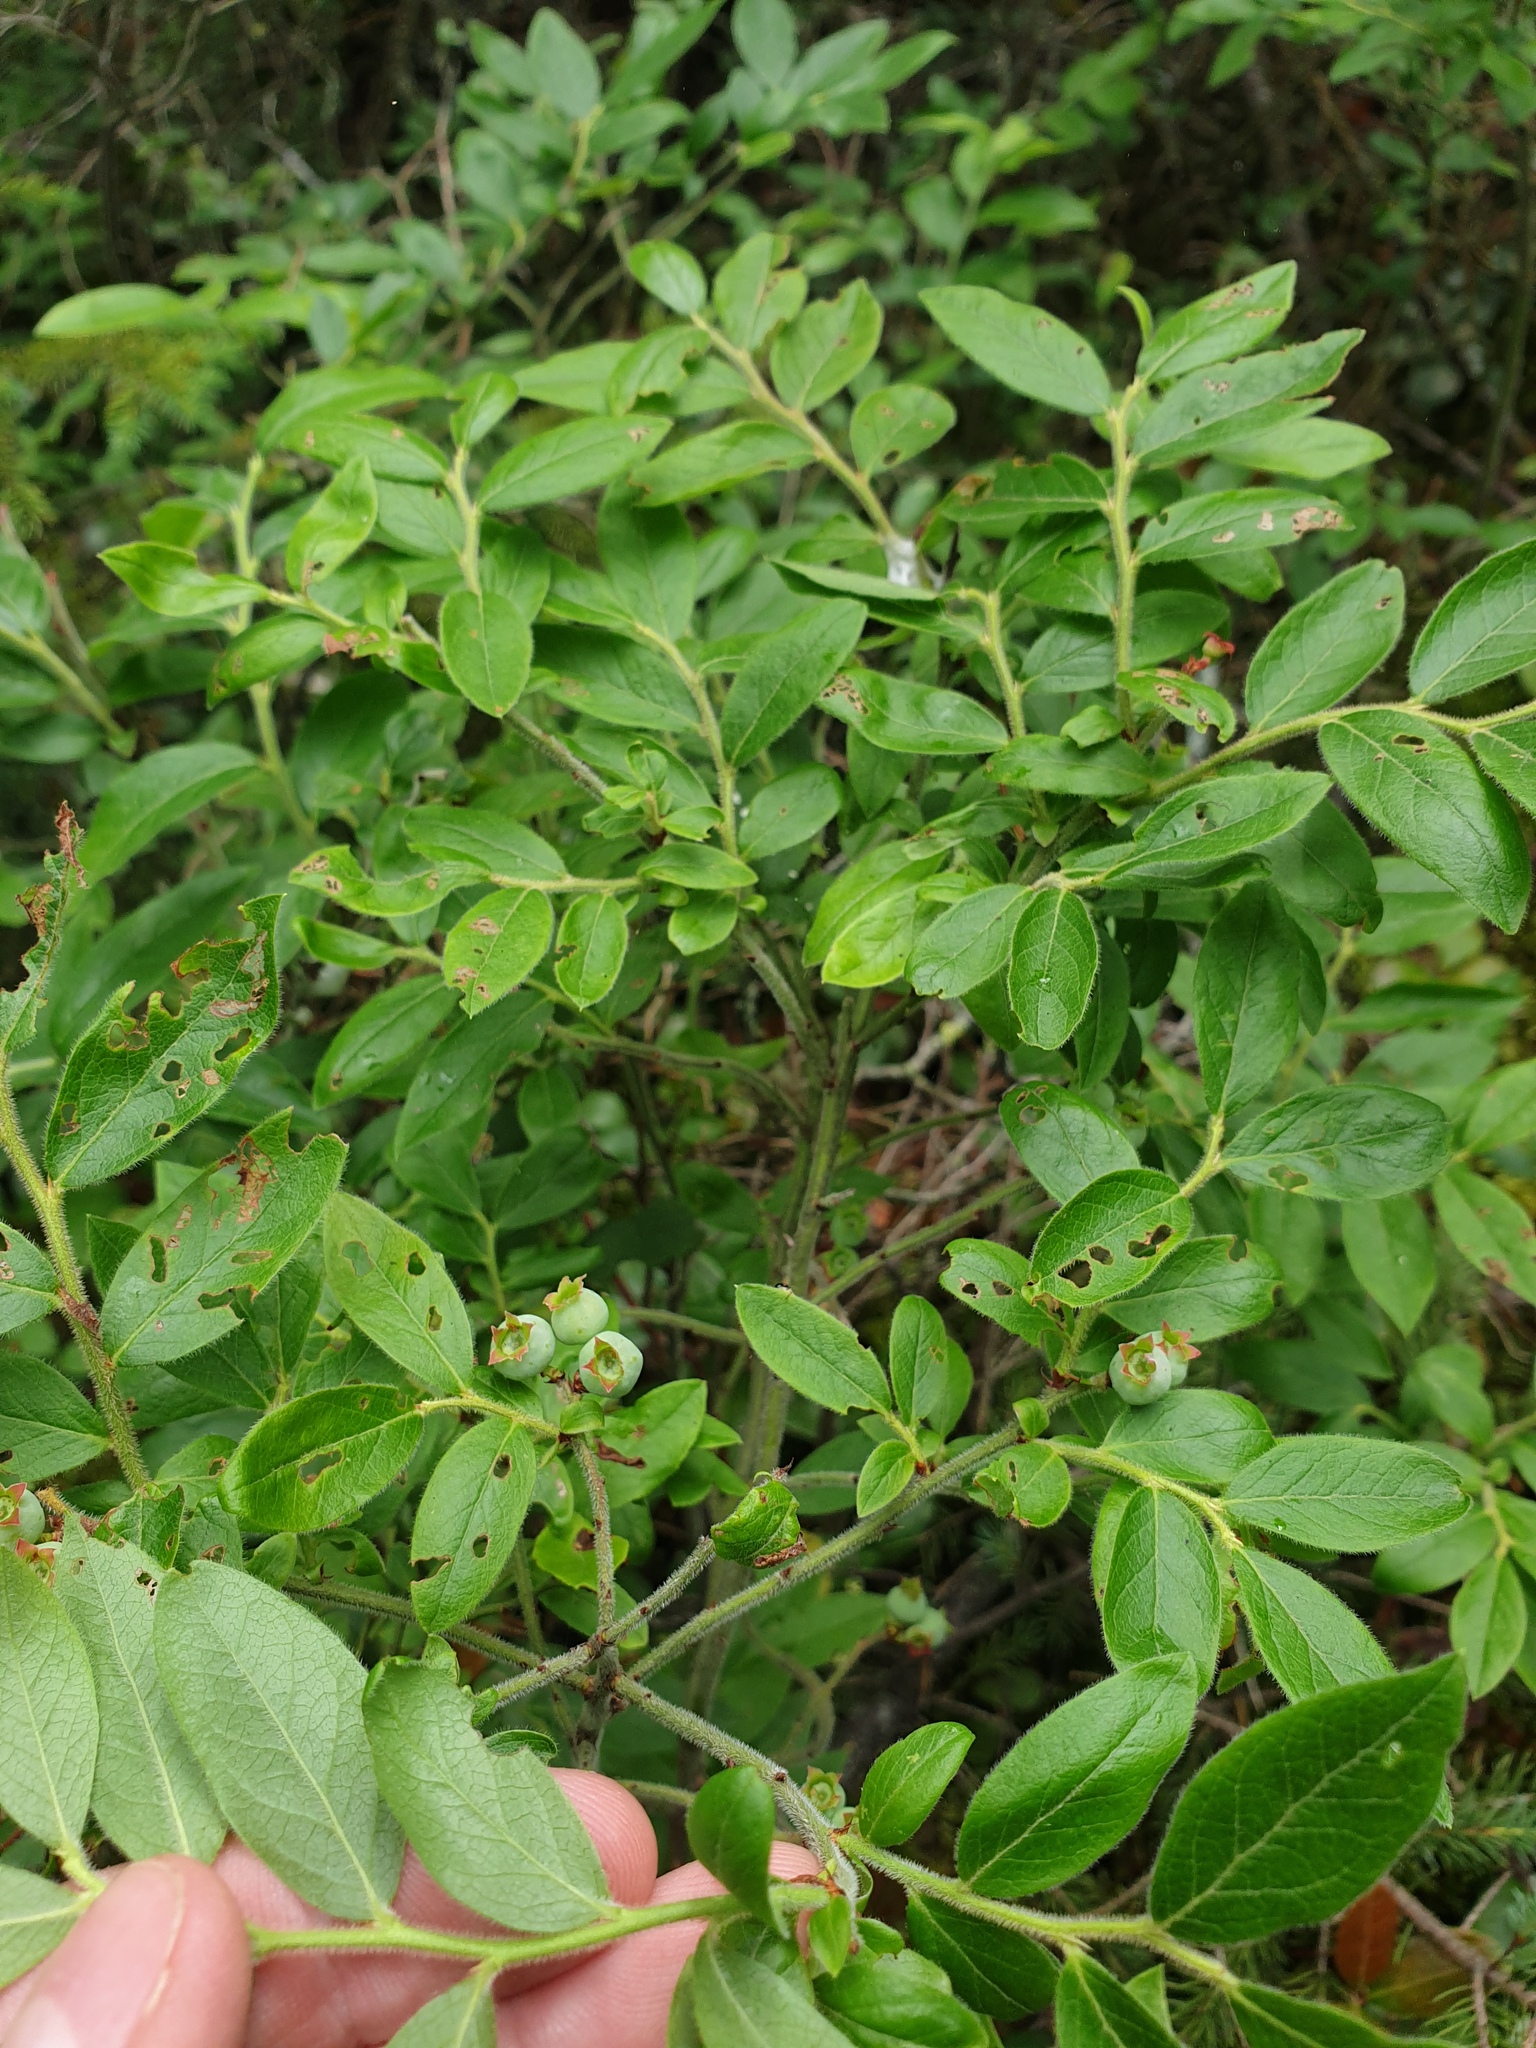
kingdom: Plantae
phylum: Tracheophyta
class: Magnoliopsida
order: Ericales
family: Ericaceae
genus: Vaccinium
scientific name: Vaccinium myrtilloides
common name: Canada blueberry
